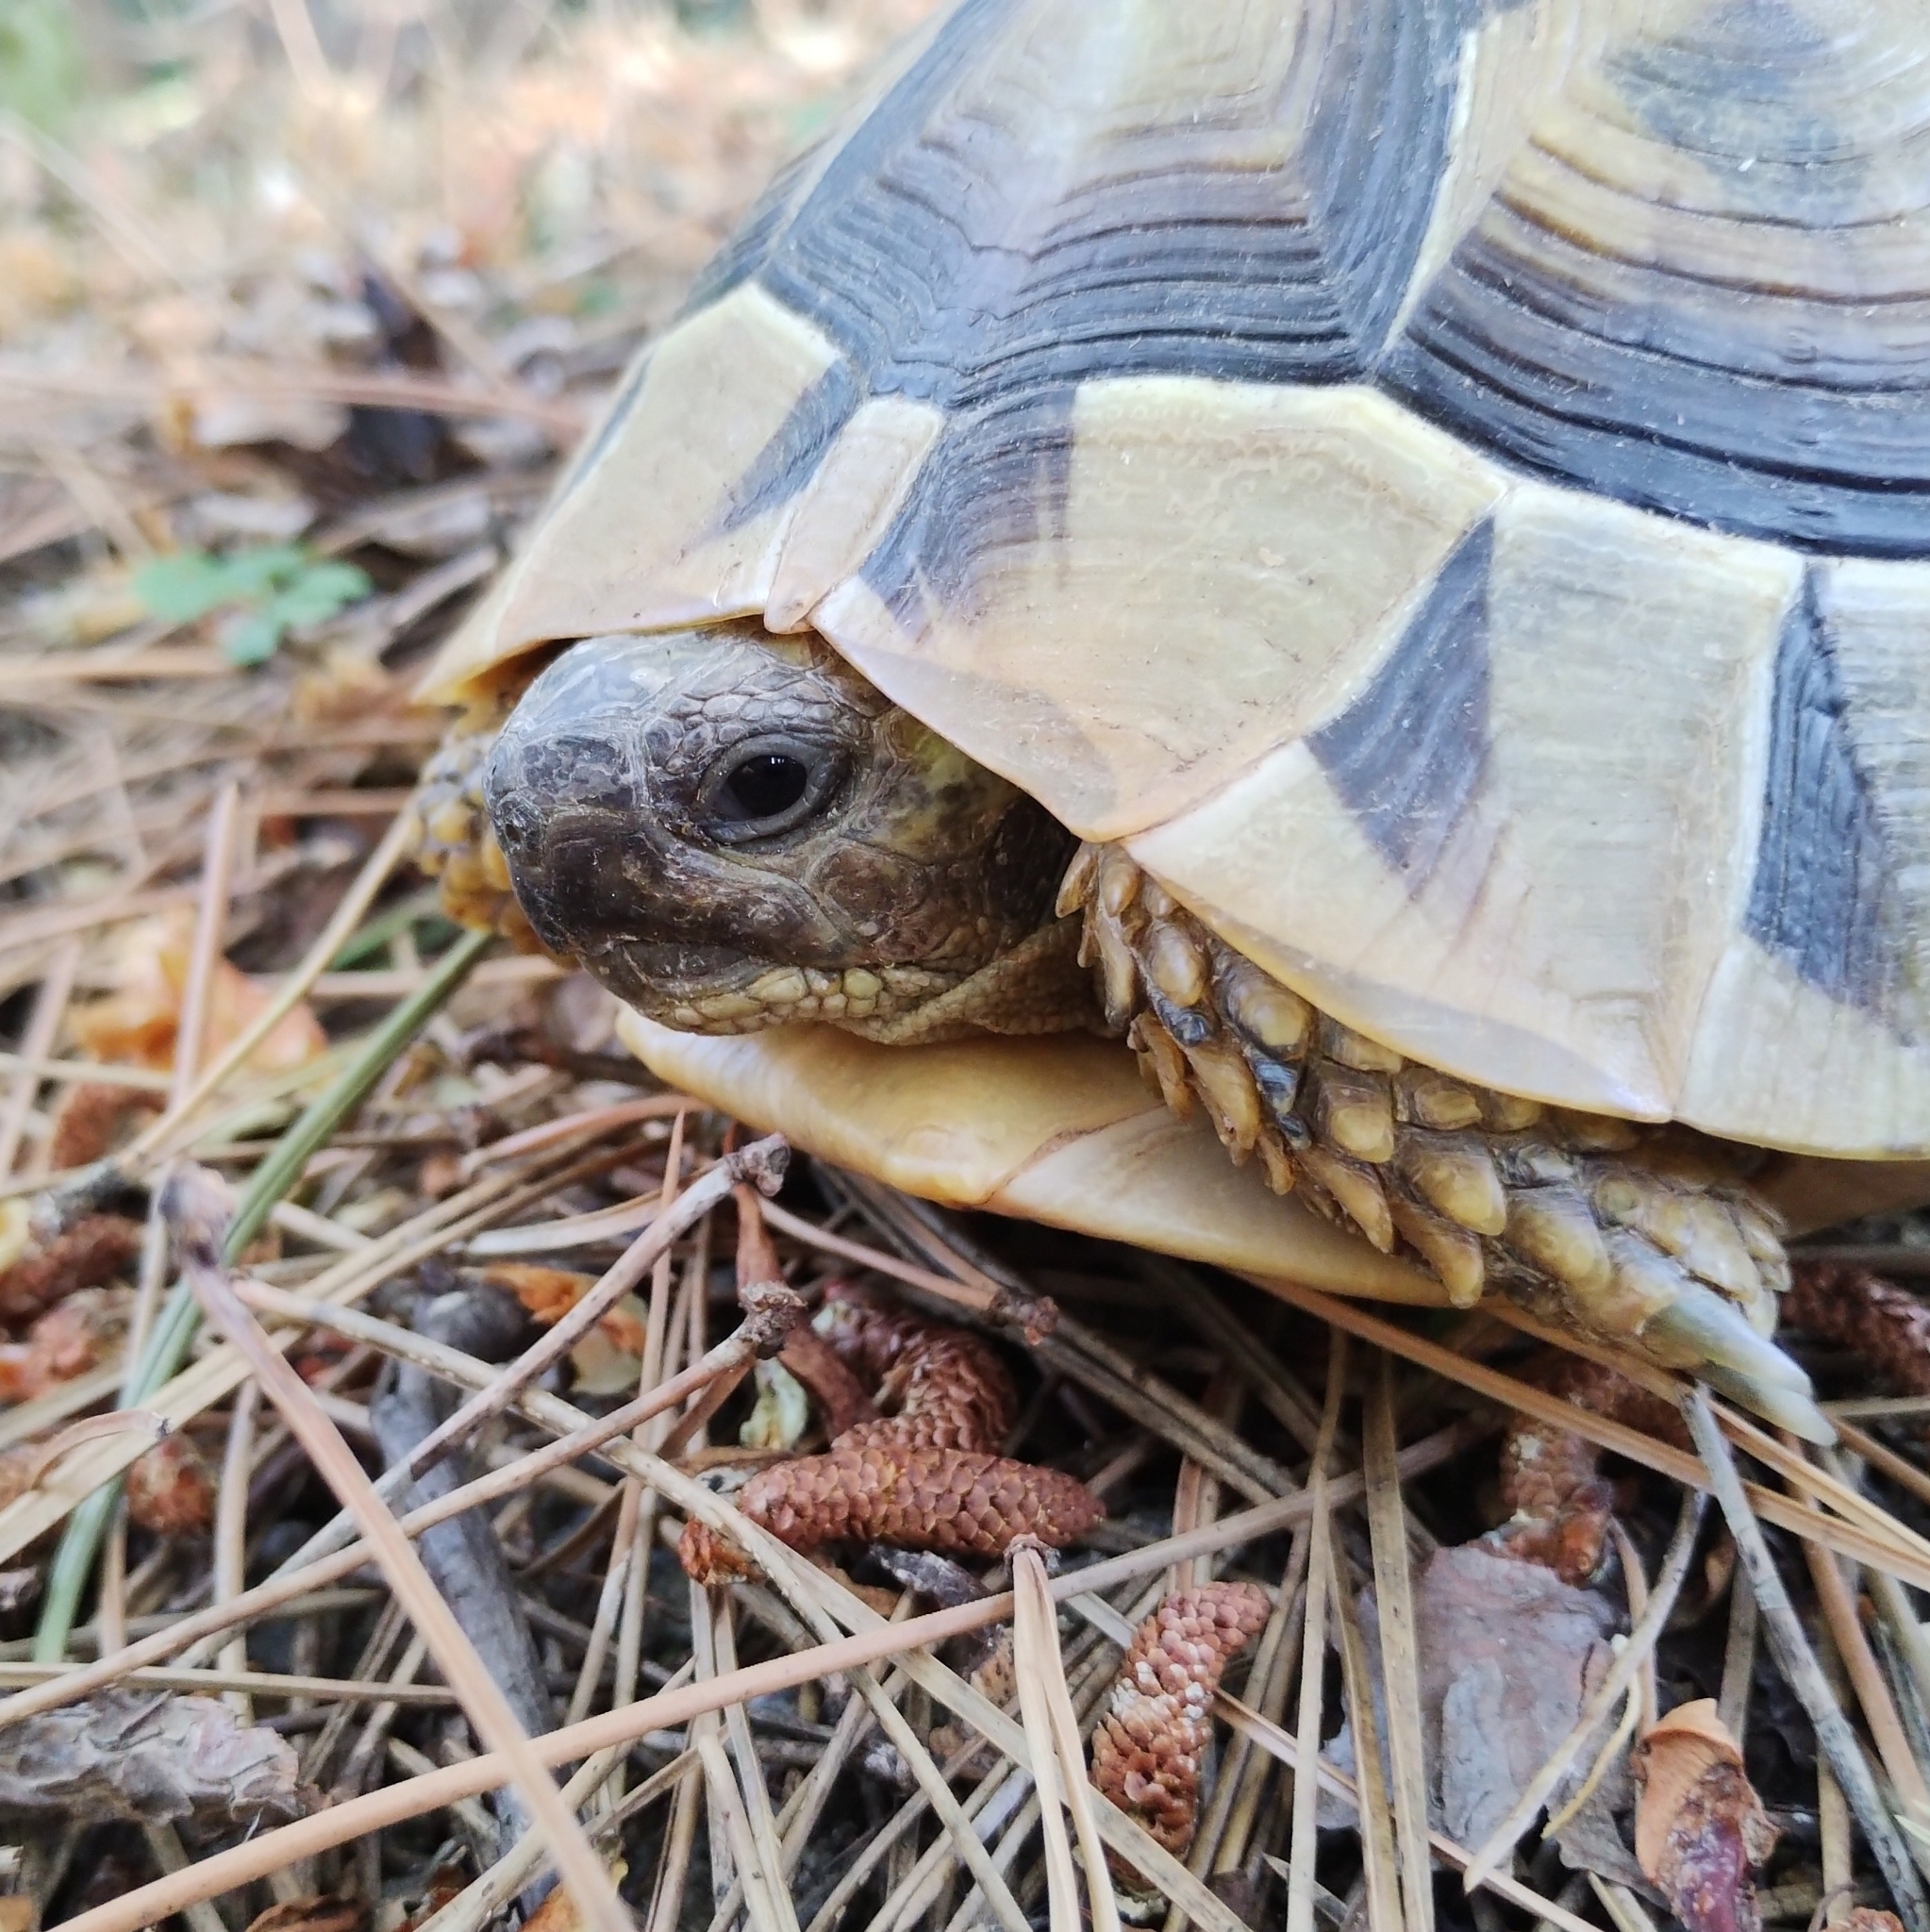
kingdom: Animalia
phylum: Chordata
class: Testudines
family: Testudinidae
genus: Testudo
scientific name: Testudo hermanni
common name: Hermann's tortoise
